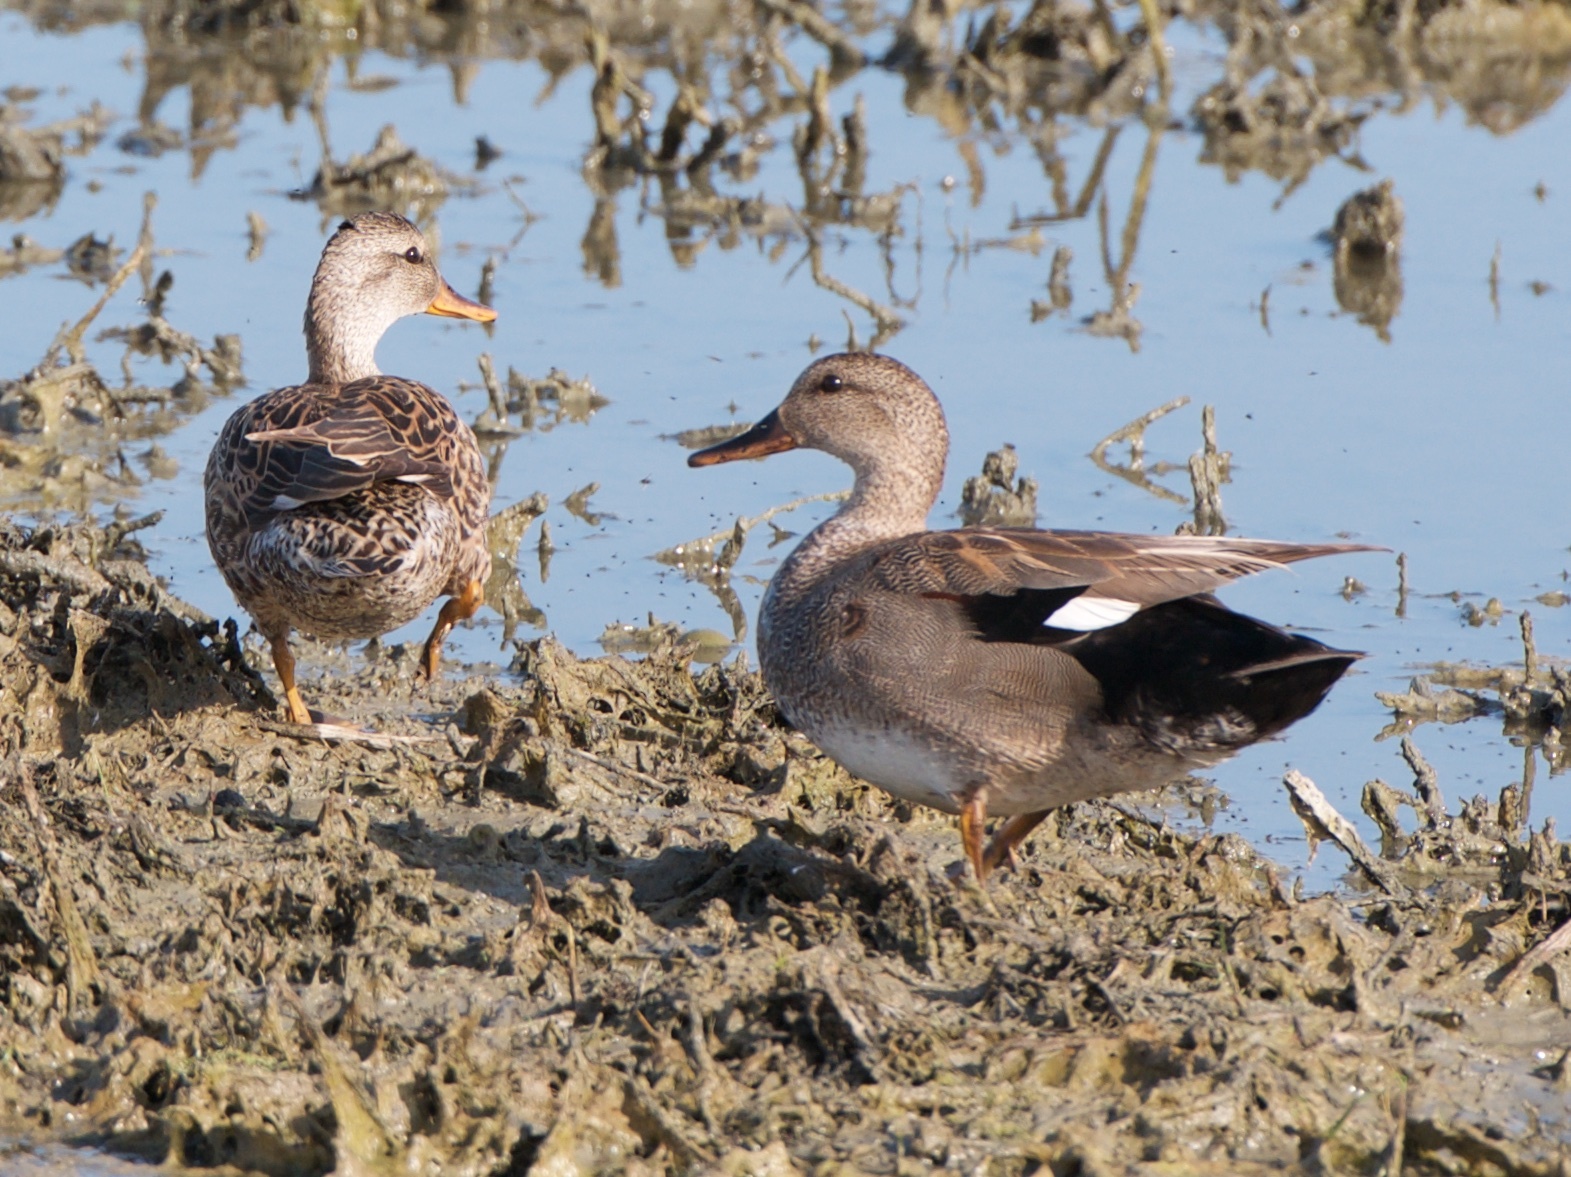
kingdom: Animalia
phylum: Chordata
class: Aves
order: Anseriformes
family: Anatidae
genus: Mareca
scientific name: Mareca strepera
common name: Gadwall
